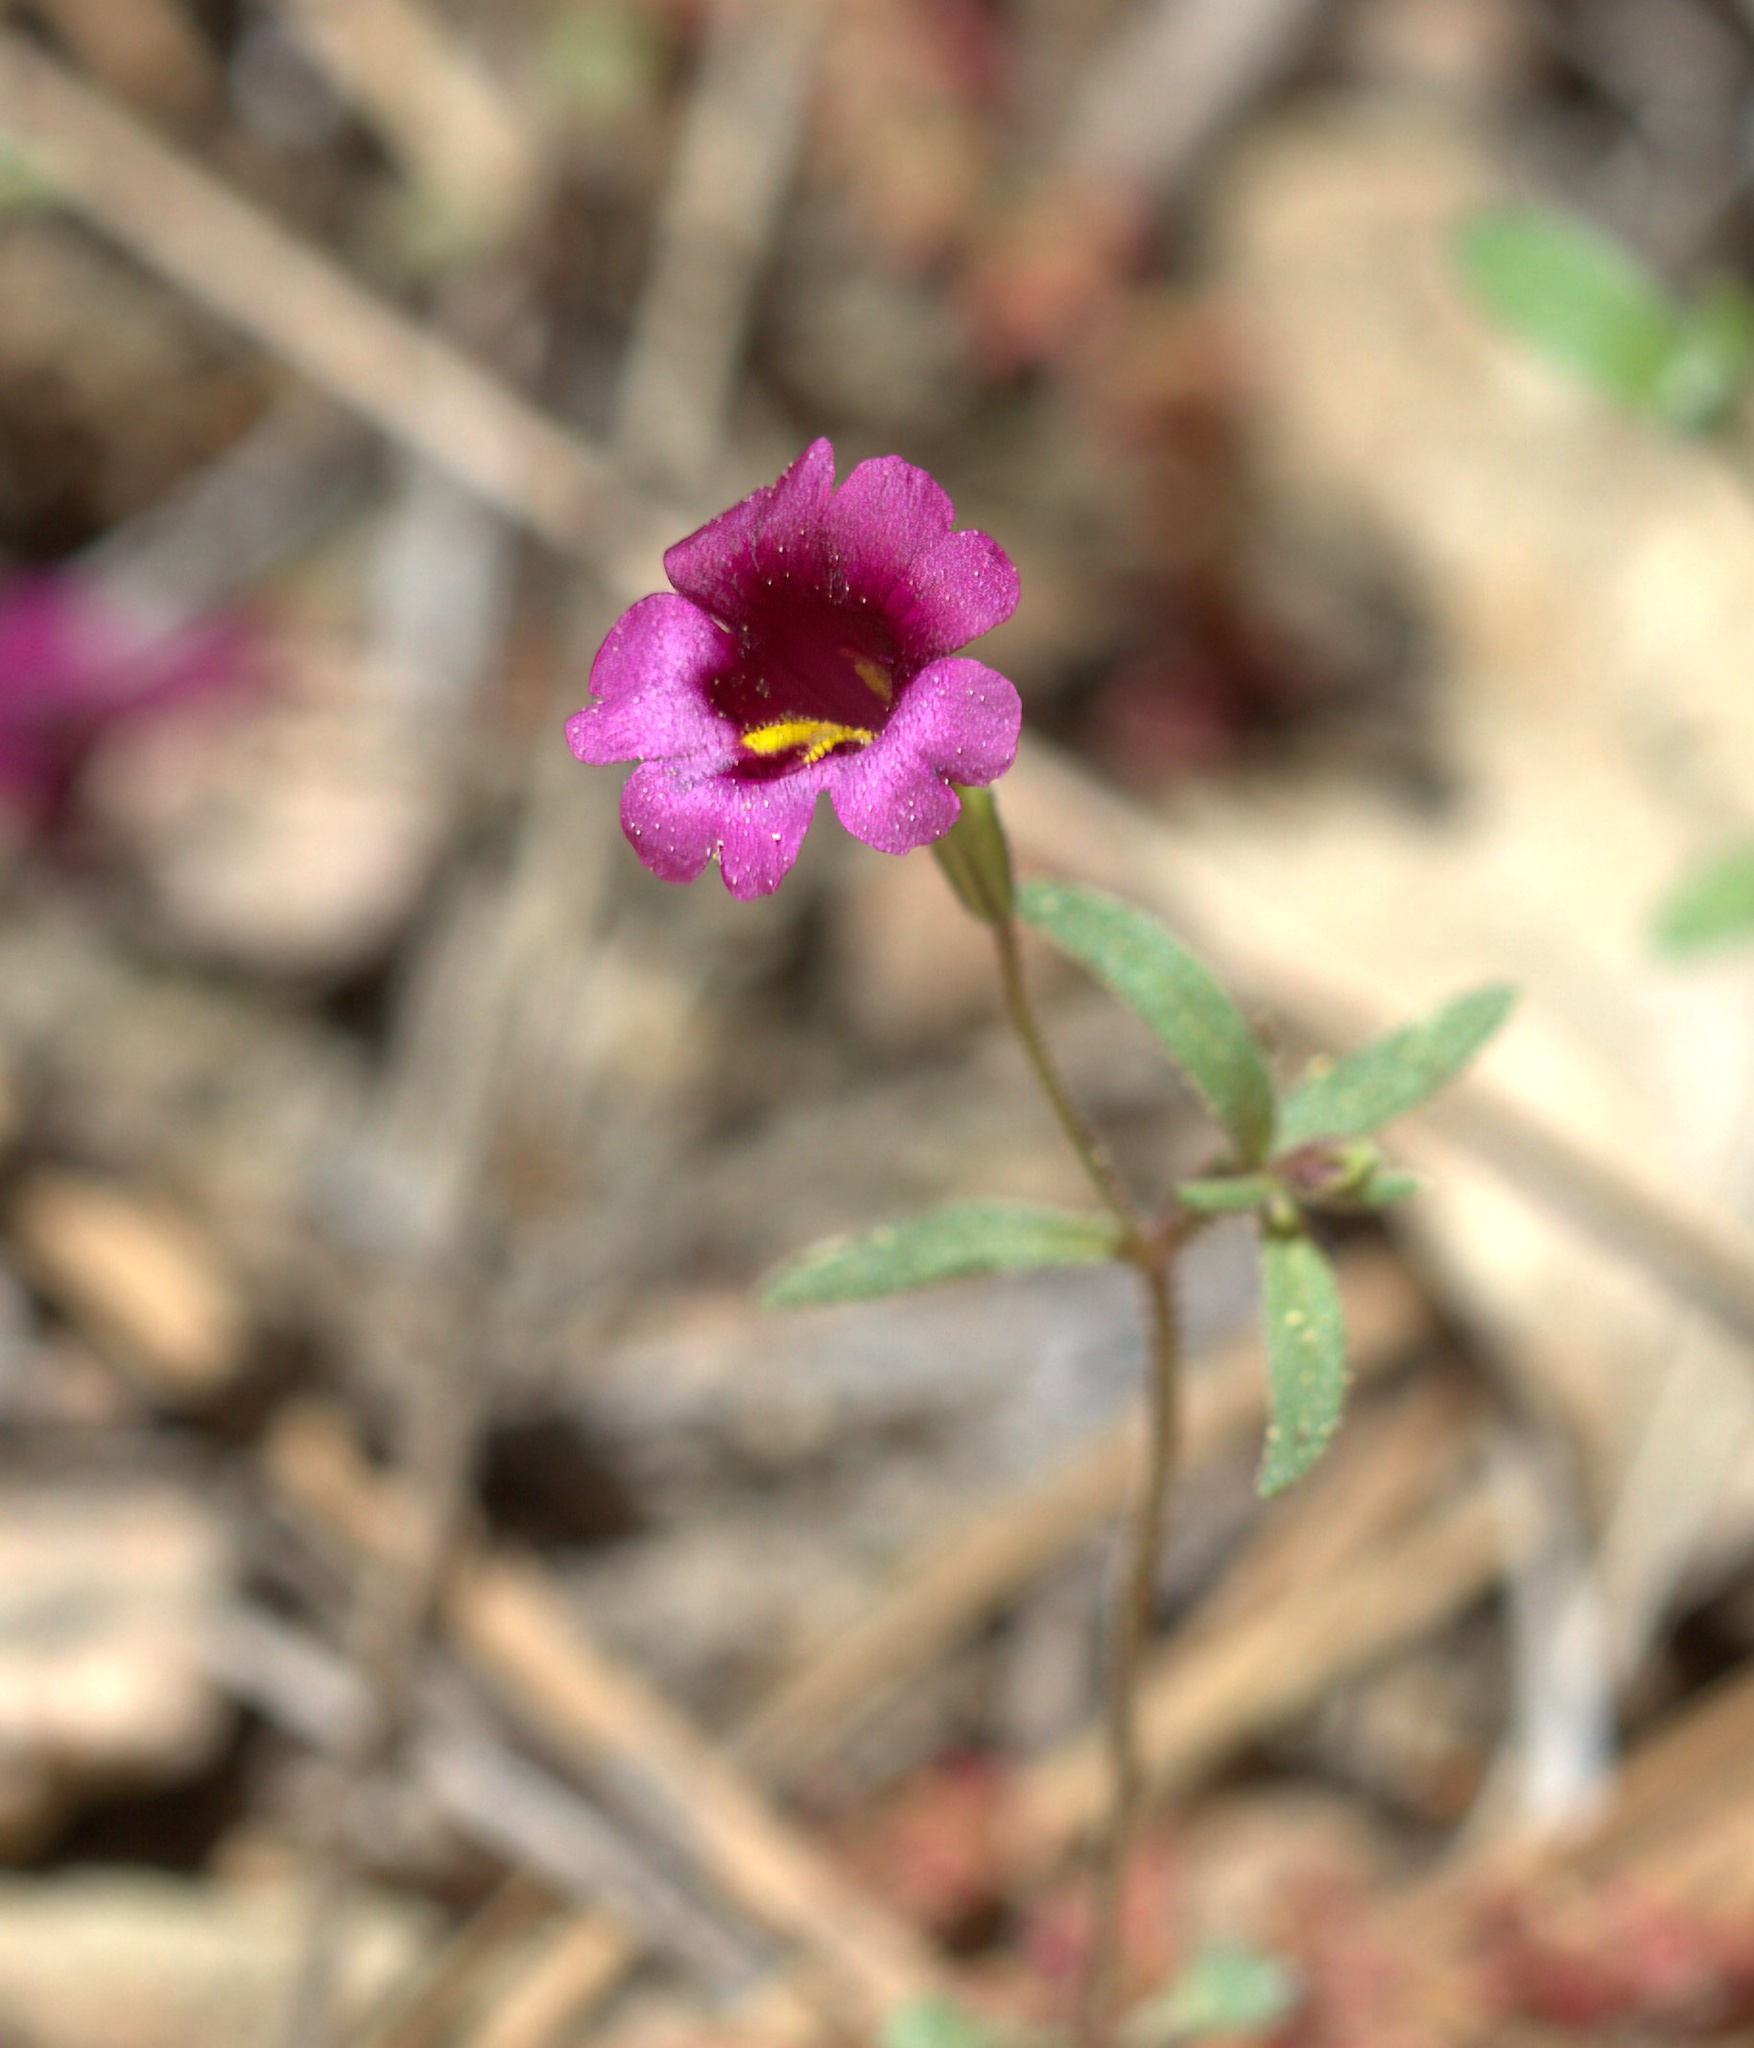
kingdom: Plantae
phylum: Tracheophyta
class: Magnoliopsida
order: Lamiales
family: Phrymaceae
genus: Erythranthe
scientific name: Erythranthe palmeri
